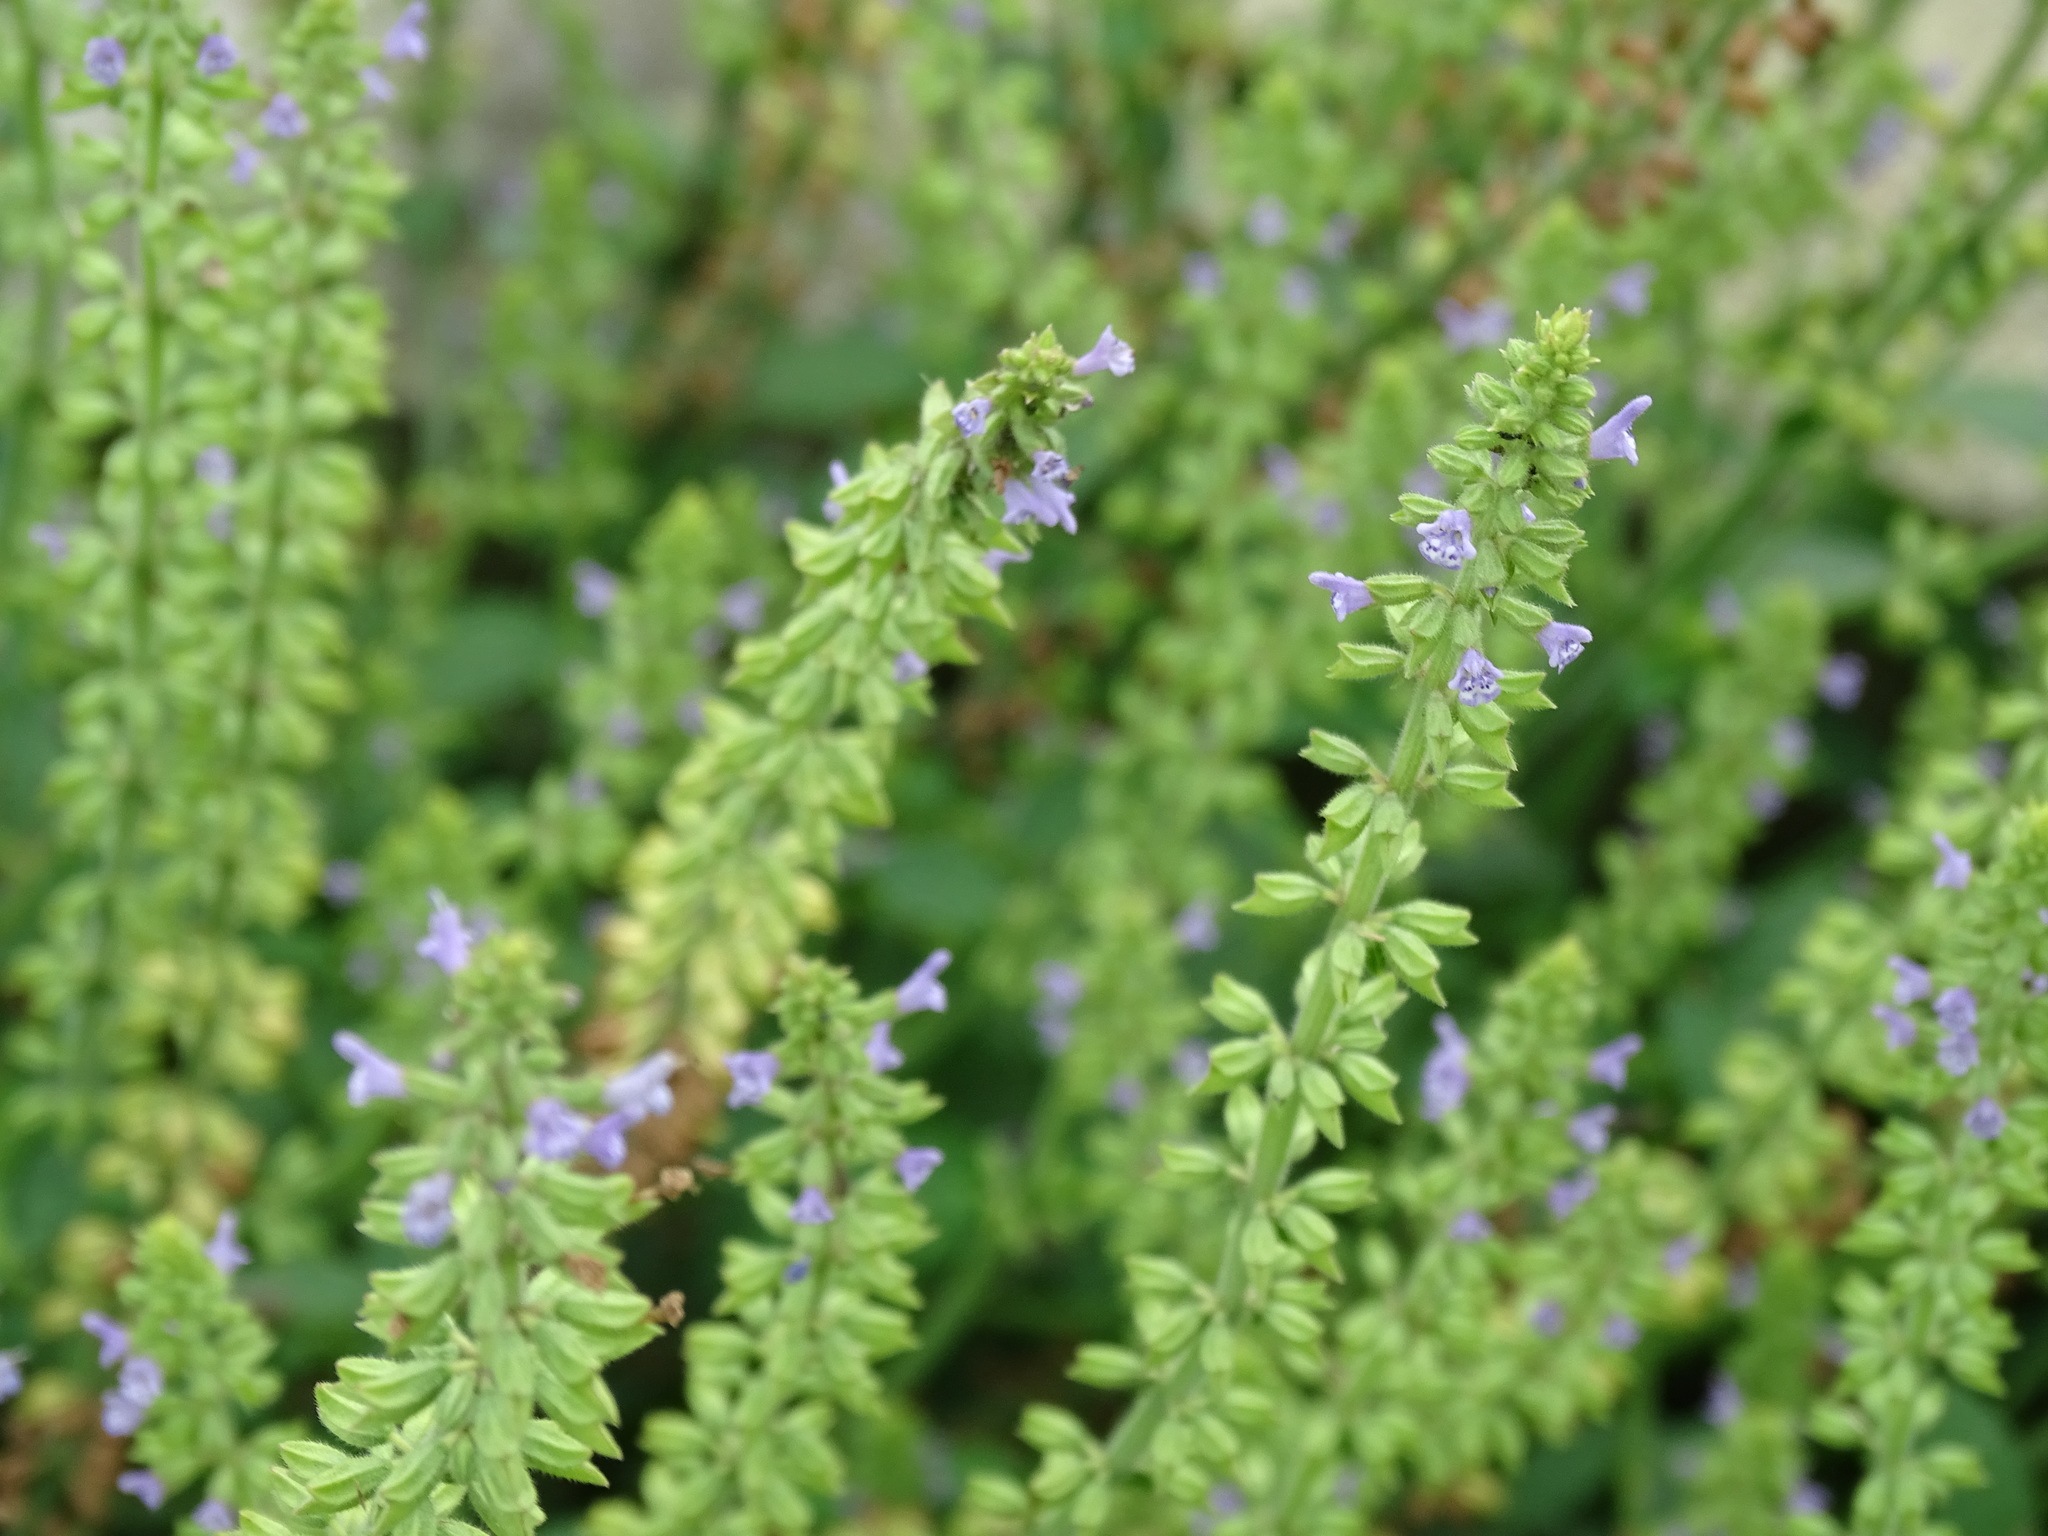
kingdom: Plantae
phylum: Tracheophyta
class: Magnoliopsida
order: Lamiales
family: Lamiaceae
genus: Salvia
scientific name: Salvia plebeia
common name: Australian sage
